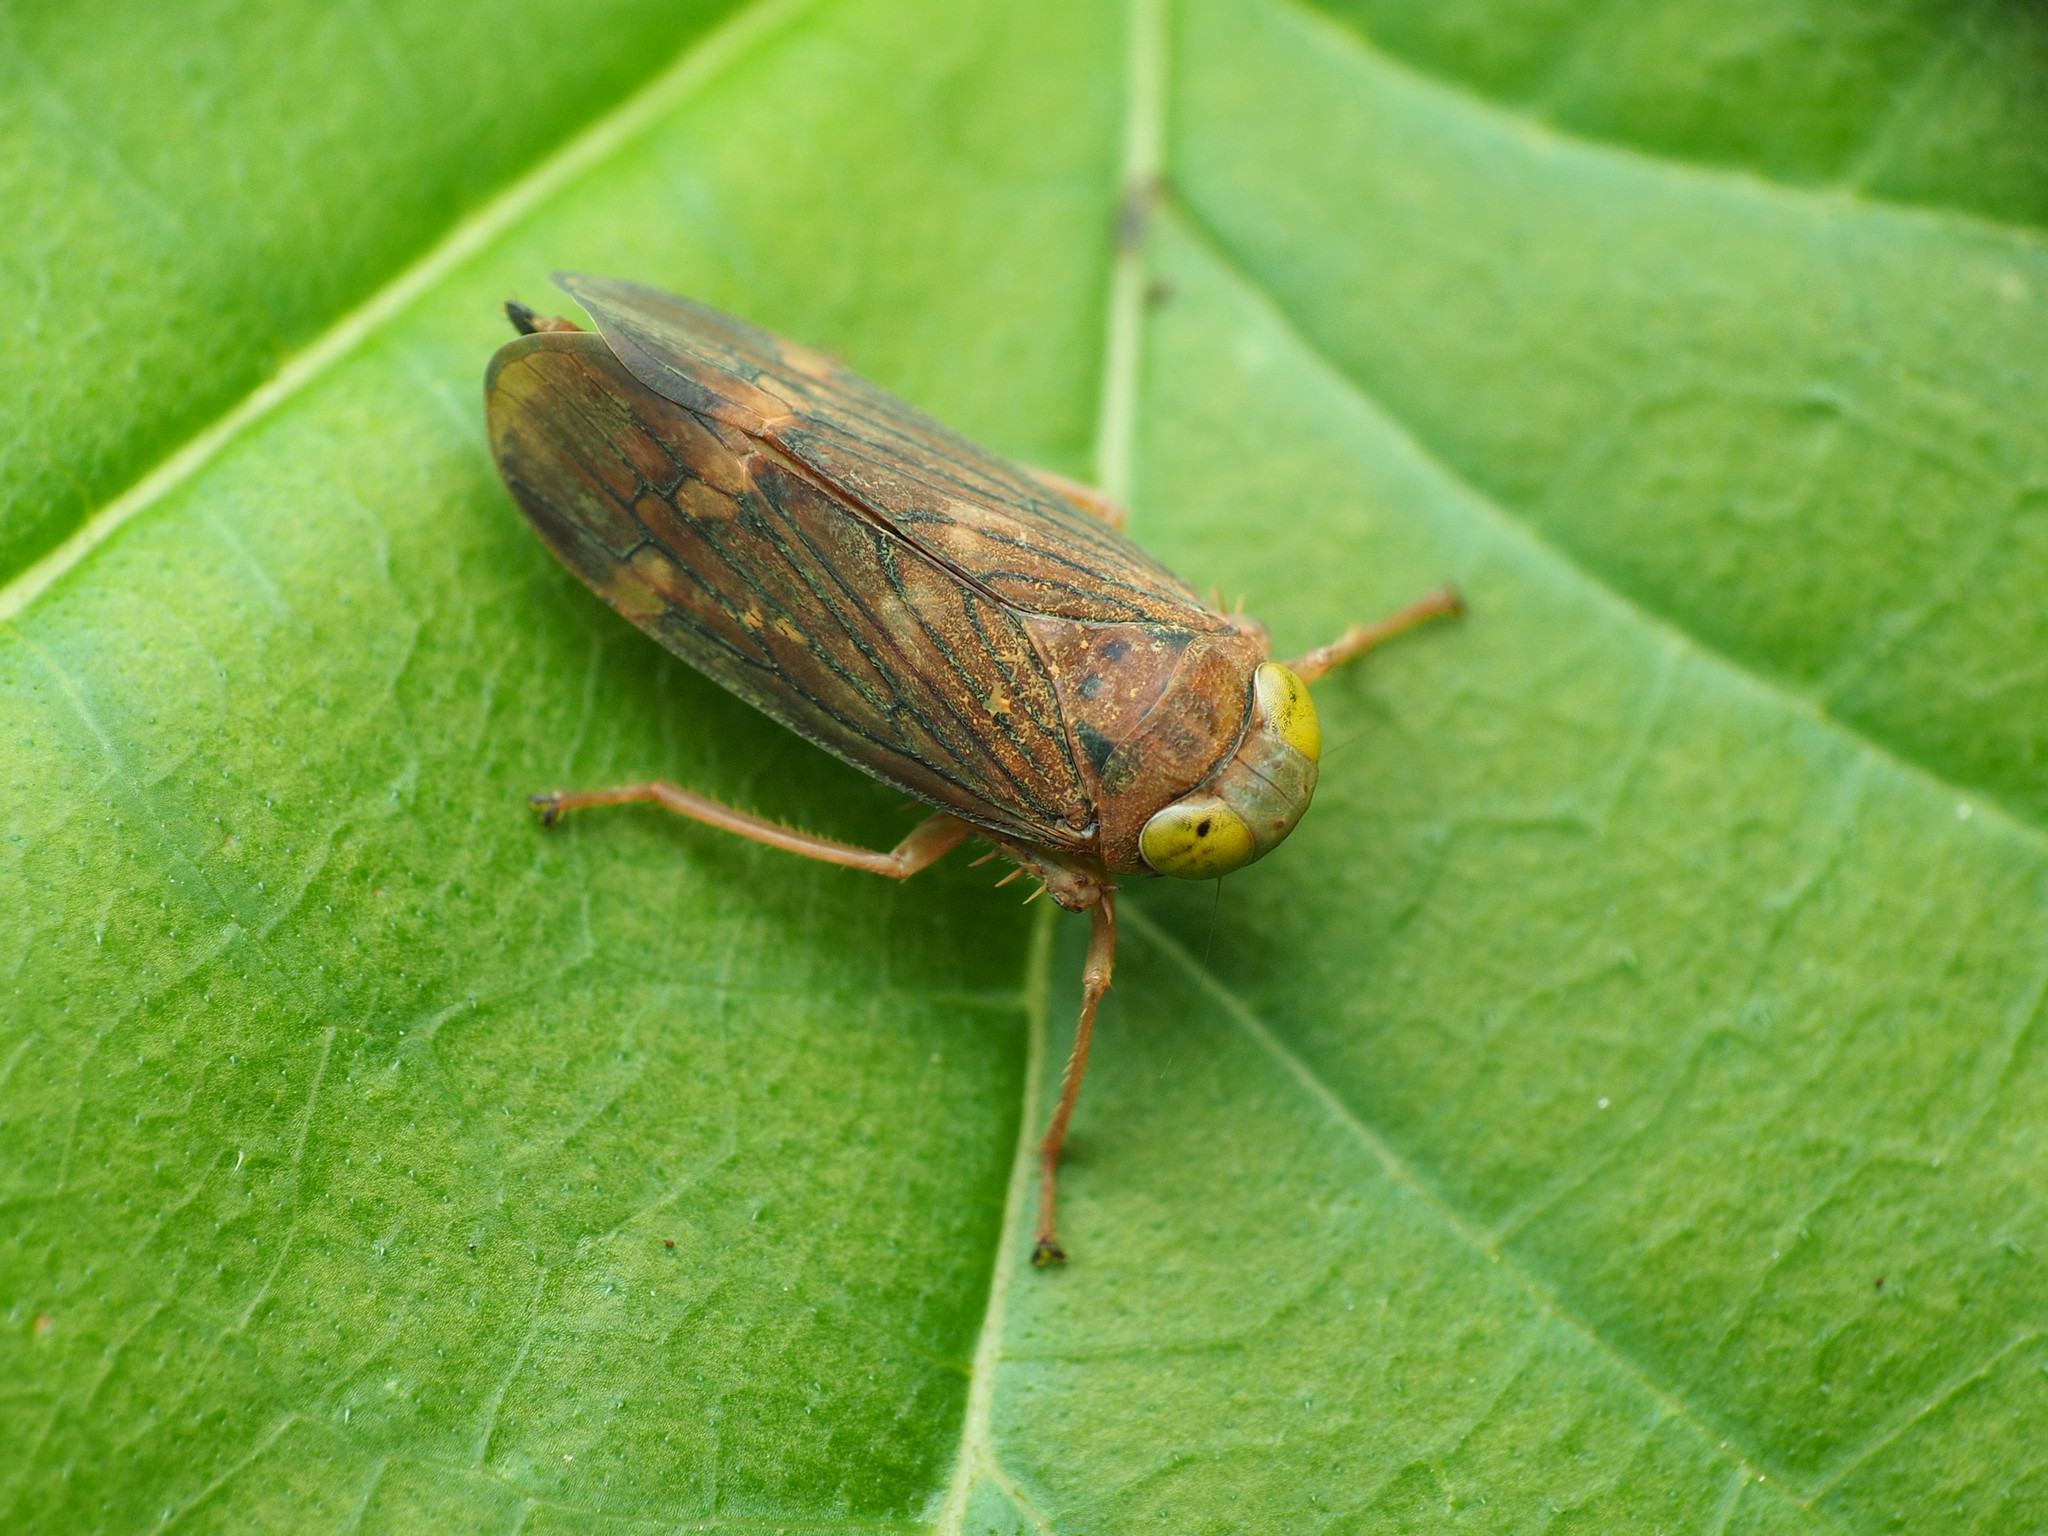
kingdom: Animalia
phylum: Arthropoda
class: Insecta
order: Hemiptera
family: Cicadellidae
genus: Jikradia
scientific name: Jikradia olitoria
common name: Coppery leafhopper
